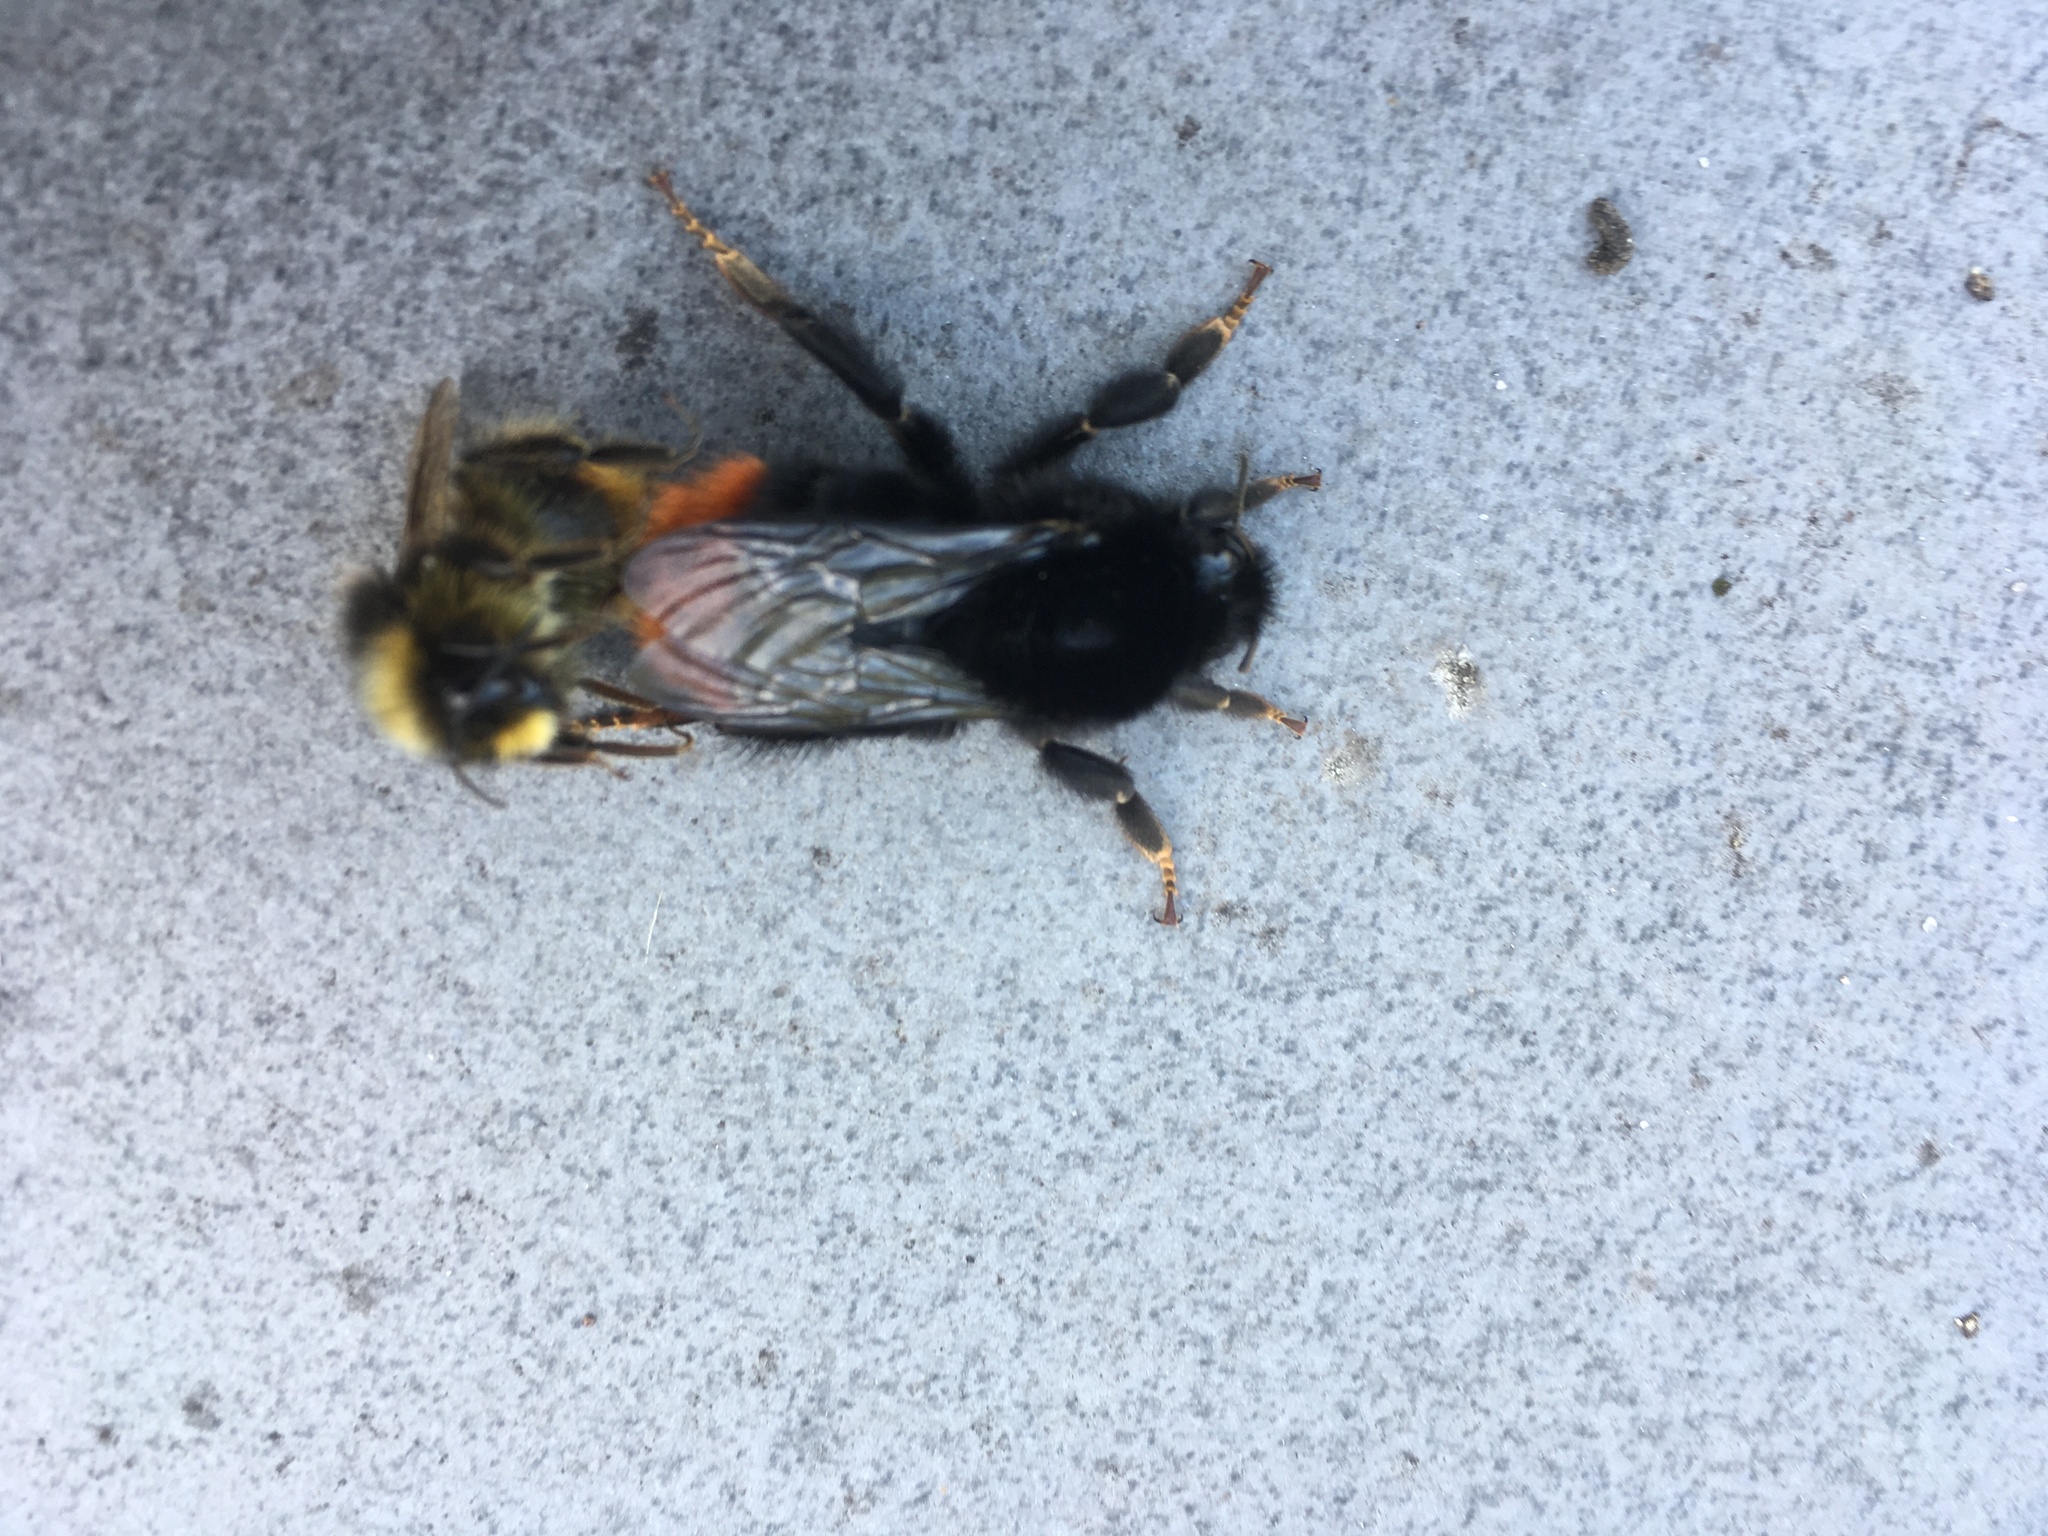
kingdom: Animalia
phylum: Arthropoda
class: Insecta
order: Hymenoptera
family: Apidae
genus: Bombus
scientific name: Bombus lapidarius
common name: Large red-tailed humble-bee
